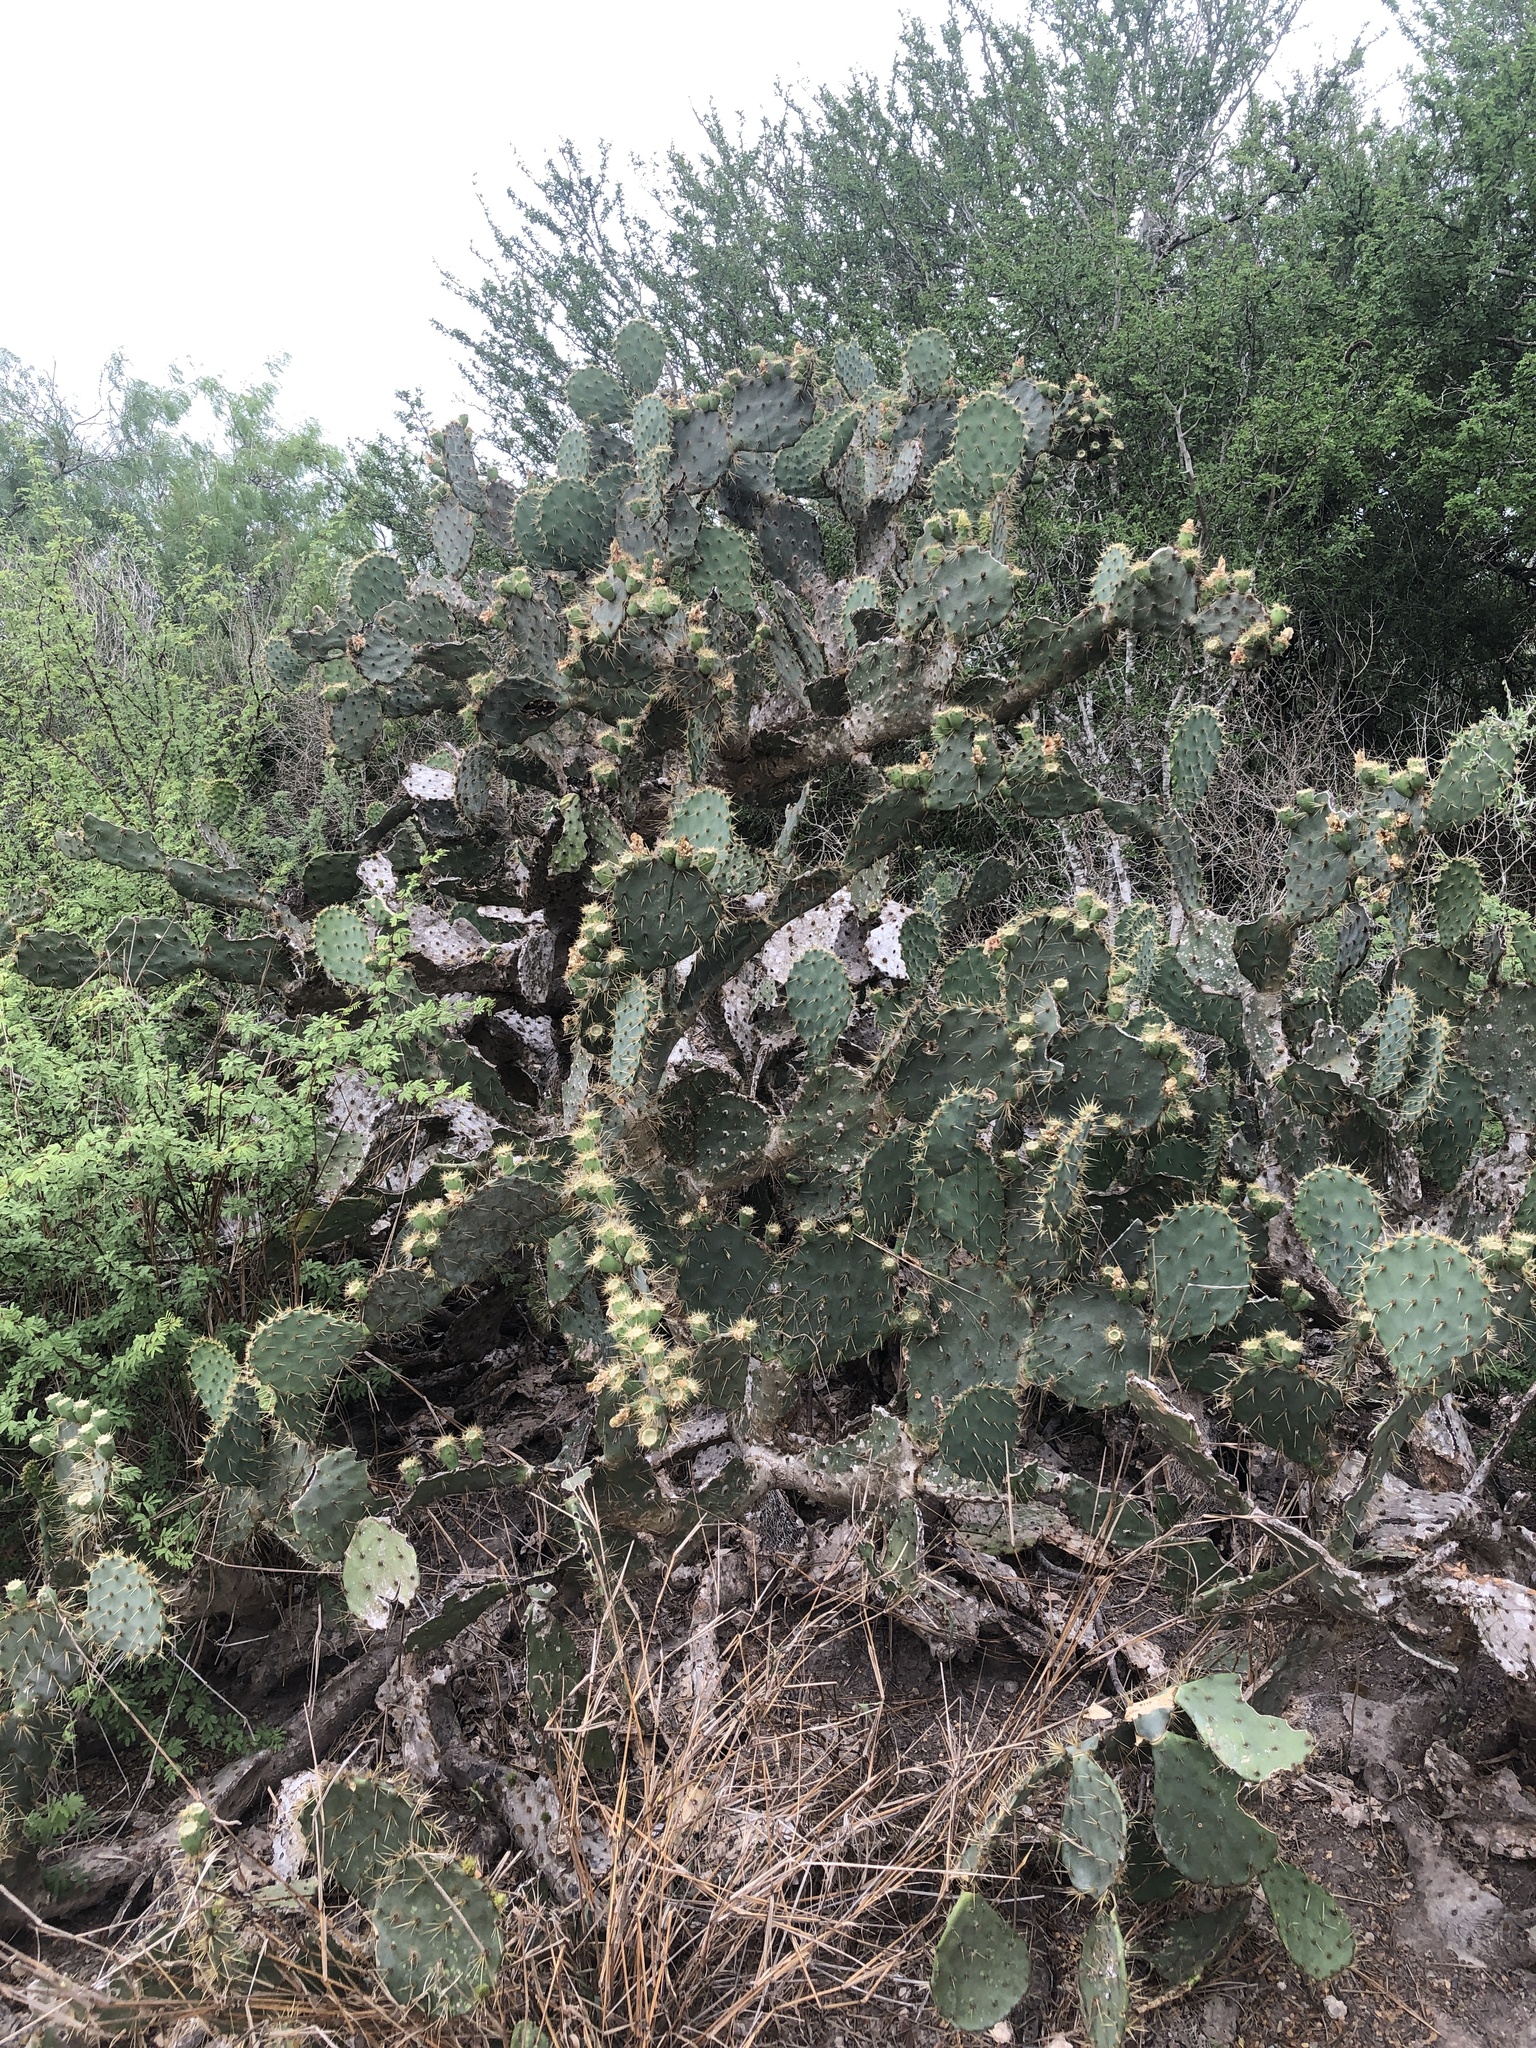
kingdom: Plantae
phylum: Tracheophyta
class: Magnoliopsida
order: Caryophyllales
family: Cactaceae
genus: Opuntia
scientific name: Opuntia alta
